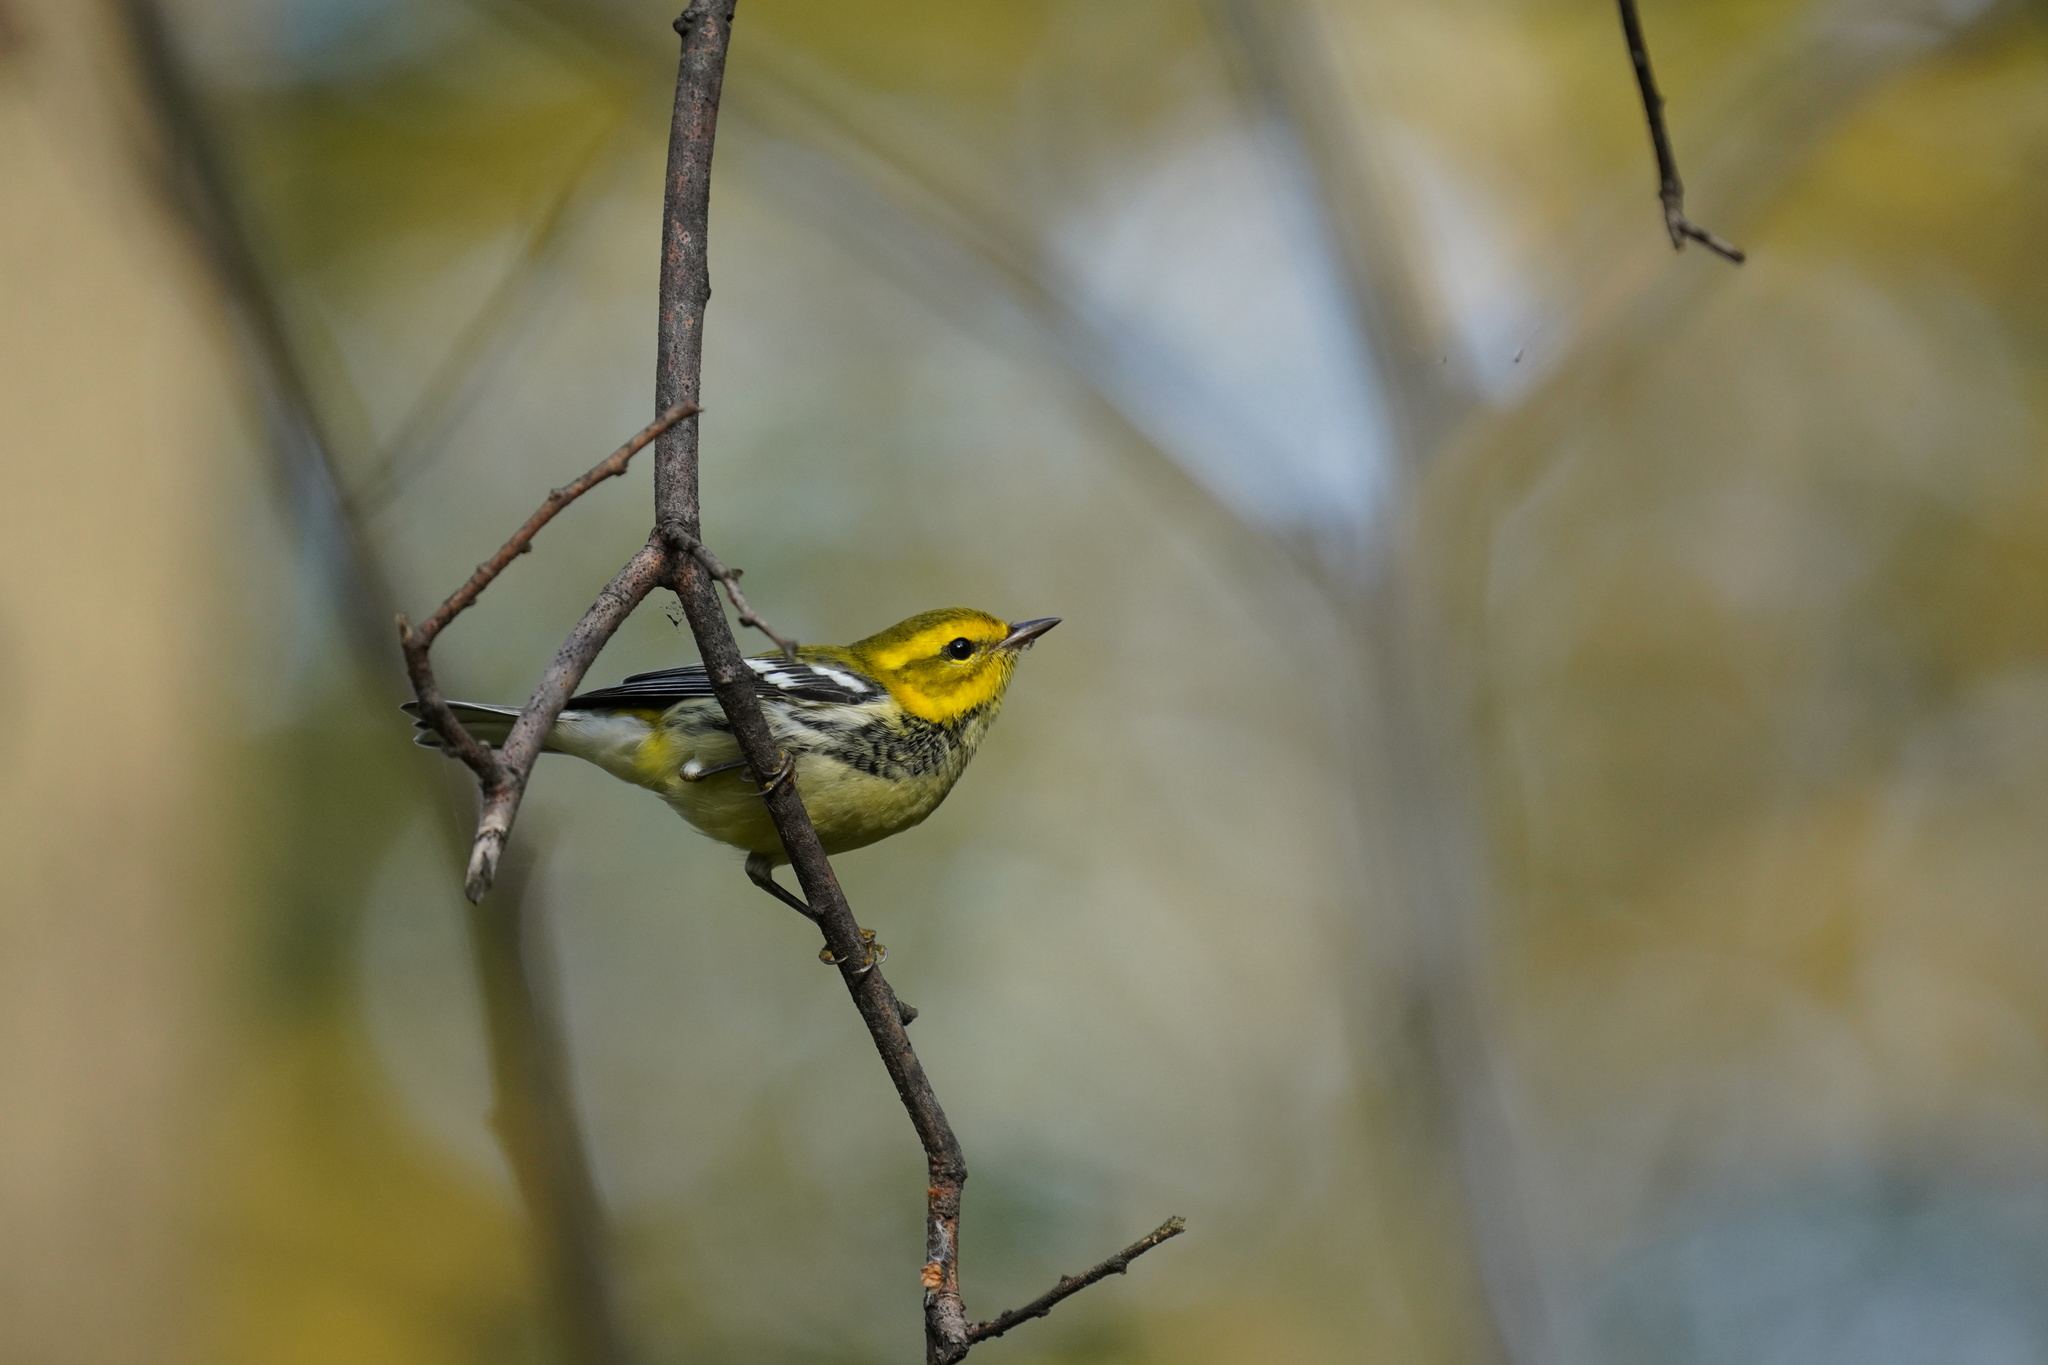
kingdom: Animalia
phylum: Chordata
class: Aves
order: Passeriformes
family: Parulidae
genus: Setophaga
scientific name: Setophaga virens
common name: Black-throated green warbler
